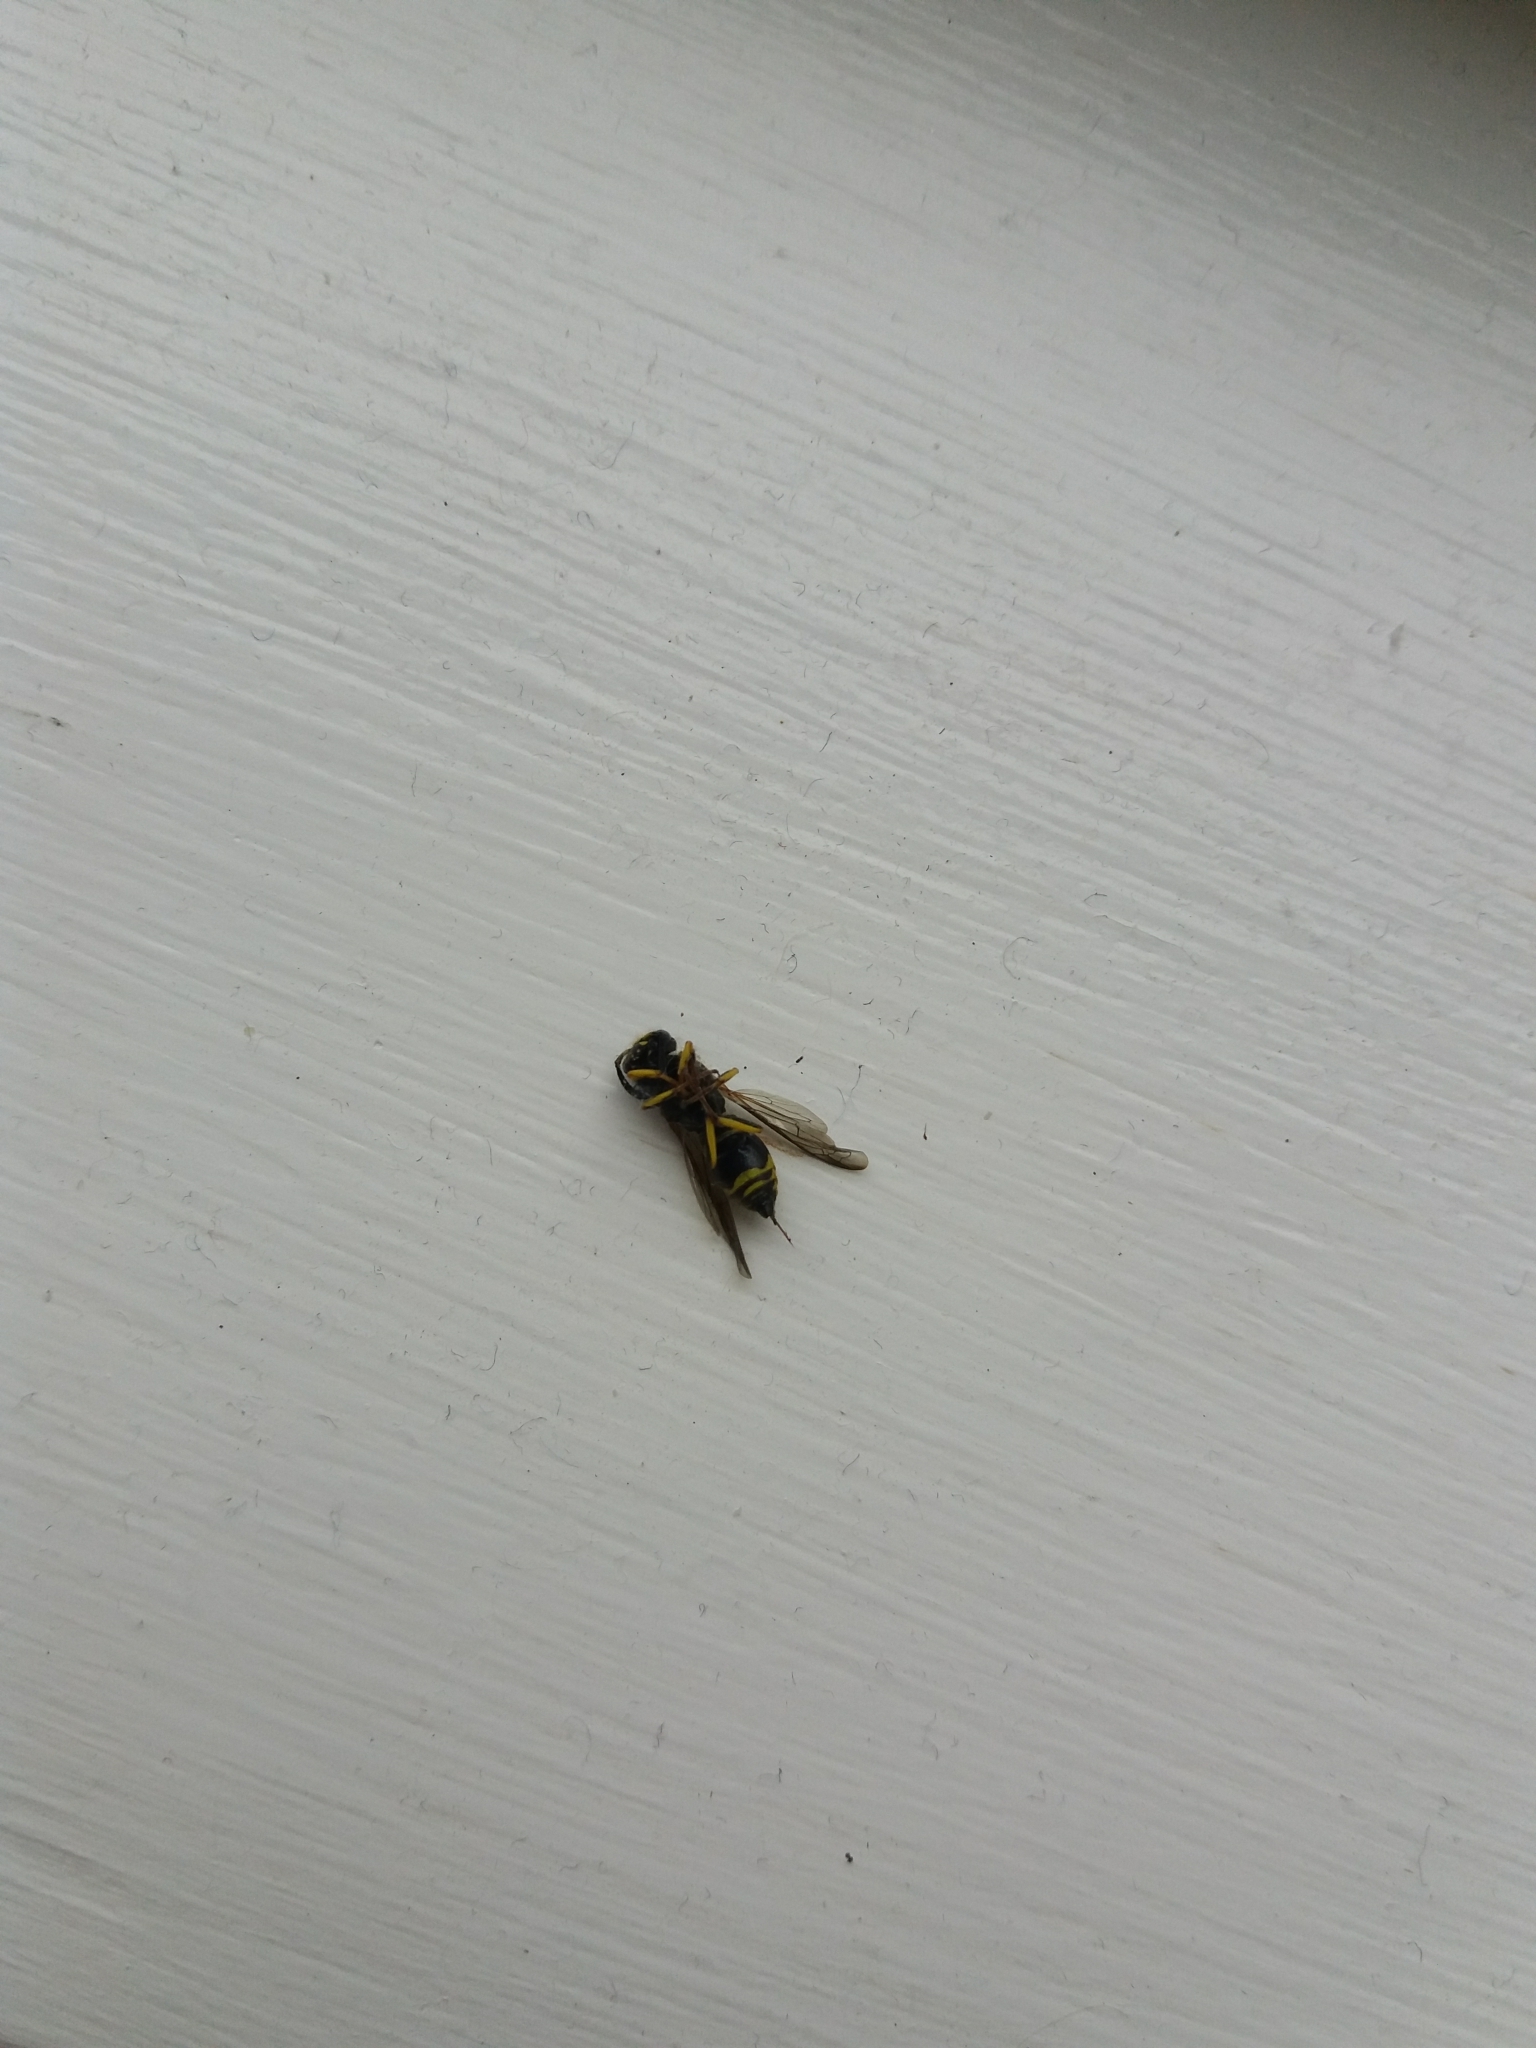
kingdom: Animalia
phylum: Arthropoda
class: Insecta
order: Hymenoptera
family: Vespidae
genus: Ancistrocerus
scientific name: Ancistrocerus gazella
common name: European tube wasp
